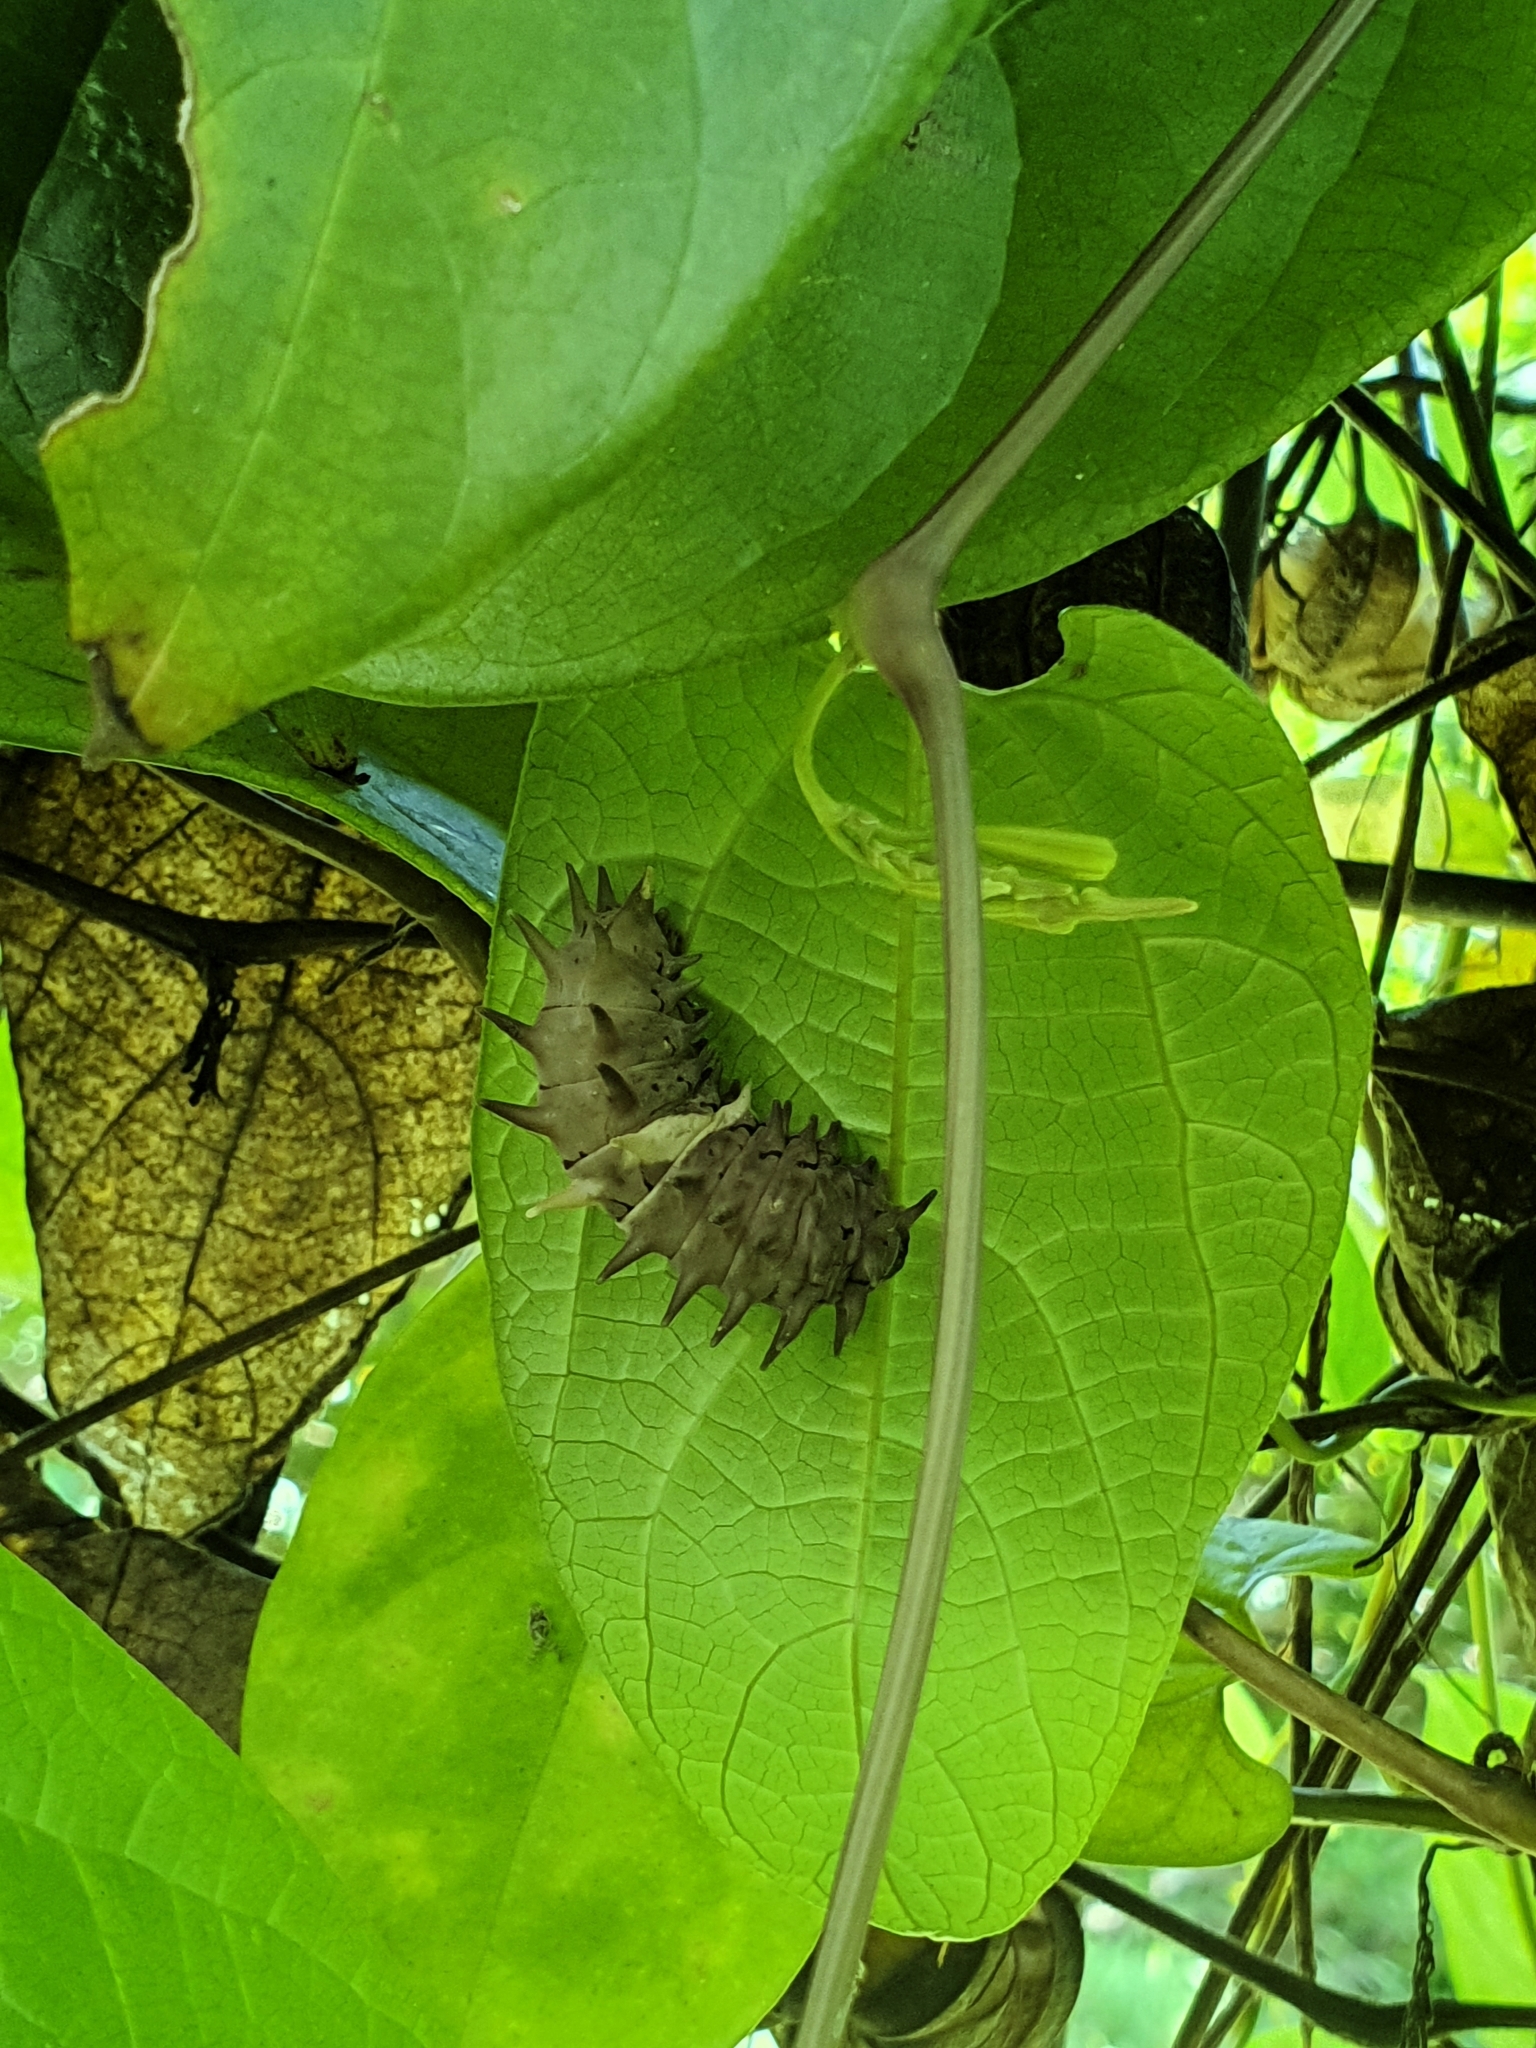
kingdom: Animalia
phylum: Arthropoda
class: Insecta
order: Lepidoptera
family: Papilionidae
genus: Troides
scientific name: Troides helena
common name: Common birdwing
